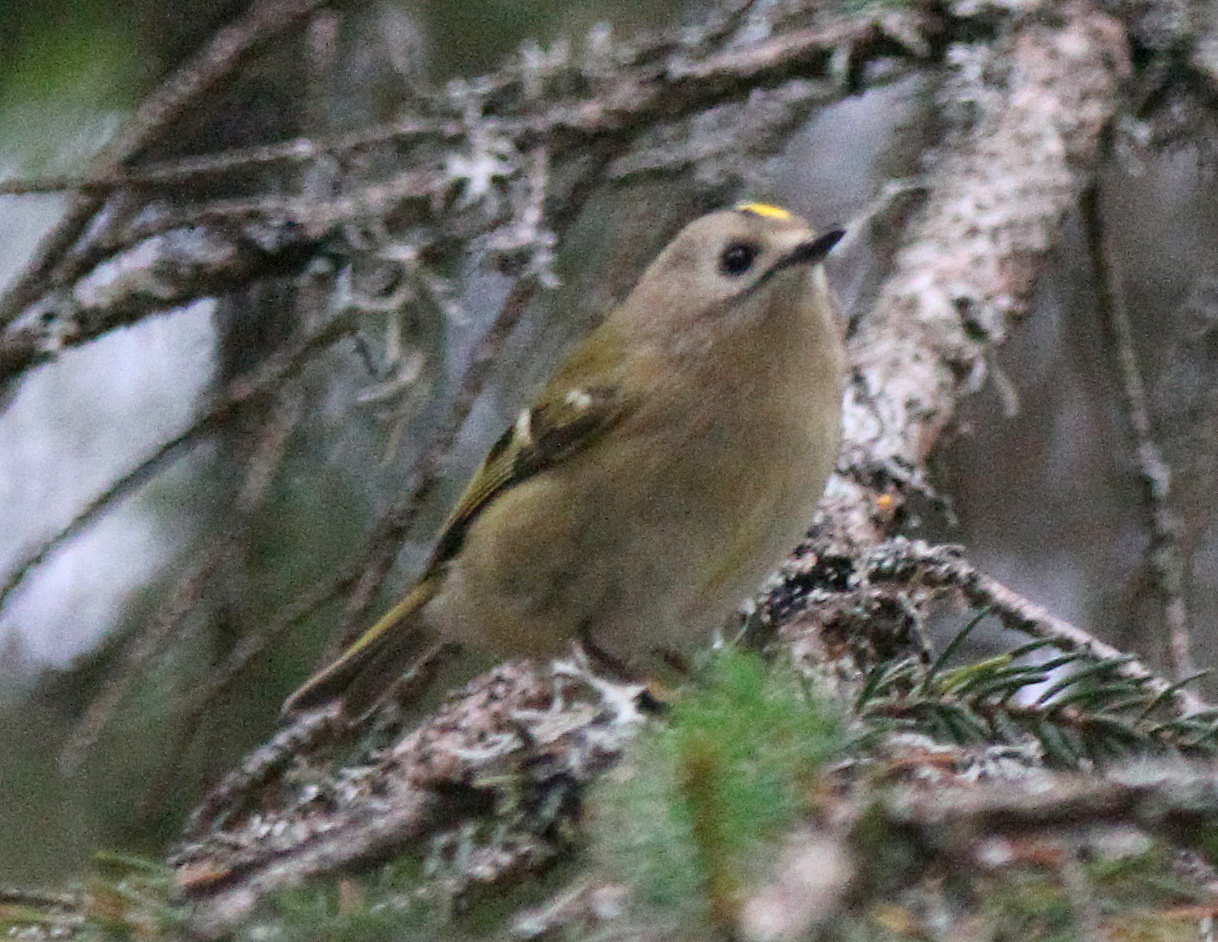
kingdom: Animalia
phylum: Chordata
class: Aves
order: Passeriformes
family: Regulidae
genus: Regulus
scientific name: Regulus regulus
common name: Goldcrest
